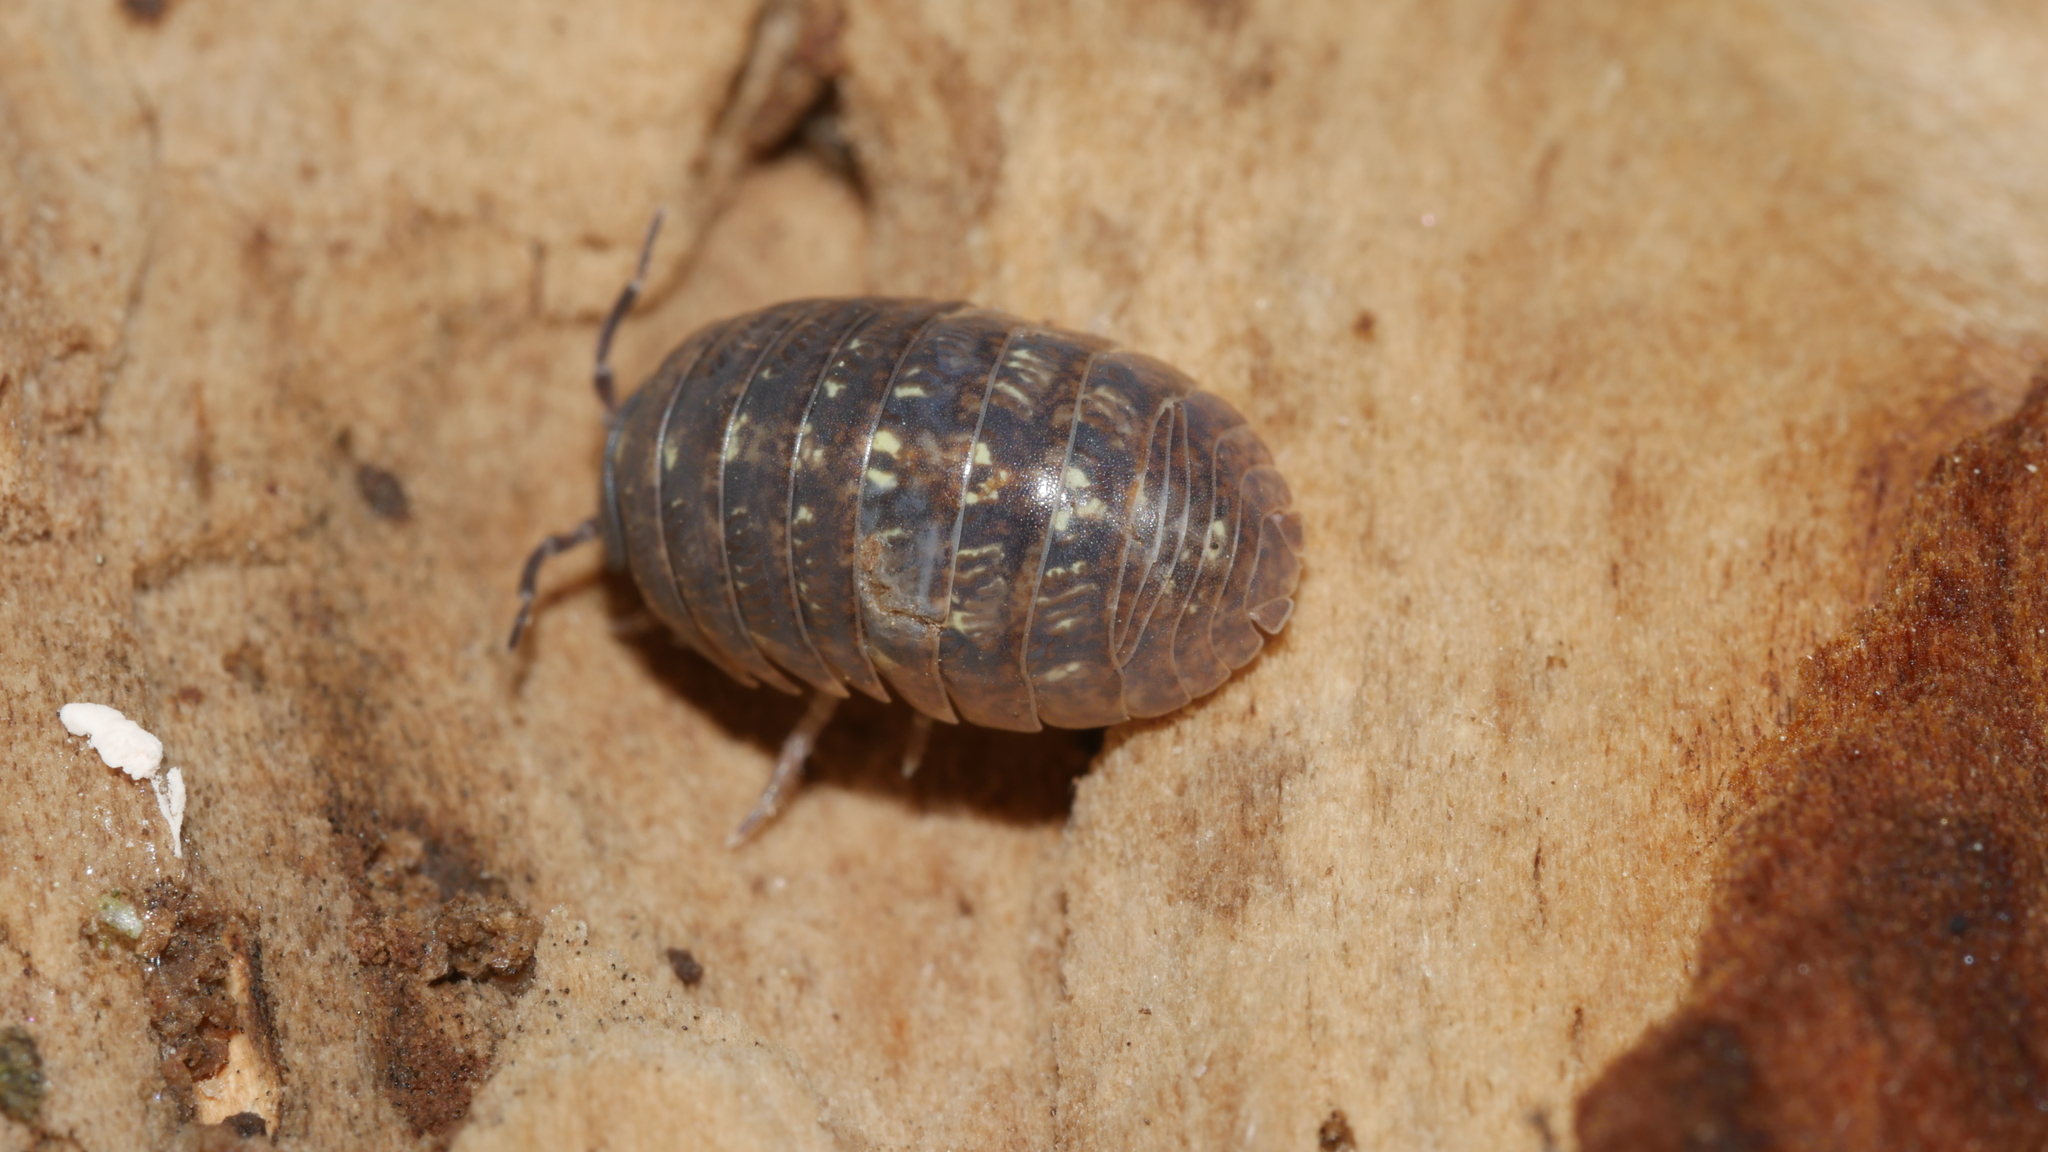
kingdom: Animalia
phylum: Arthropoda
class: Malacostraca
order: Isopoda
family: Armadillidiidae
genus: Armadillidium
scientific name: Armadillidium vulgare
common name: Common pill woodlouse
